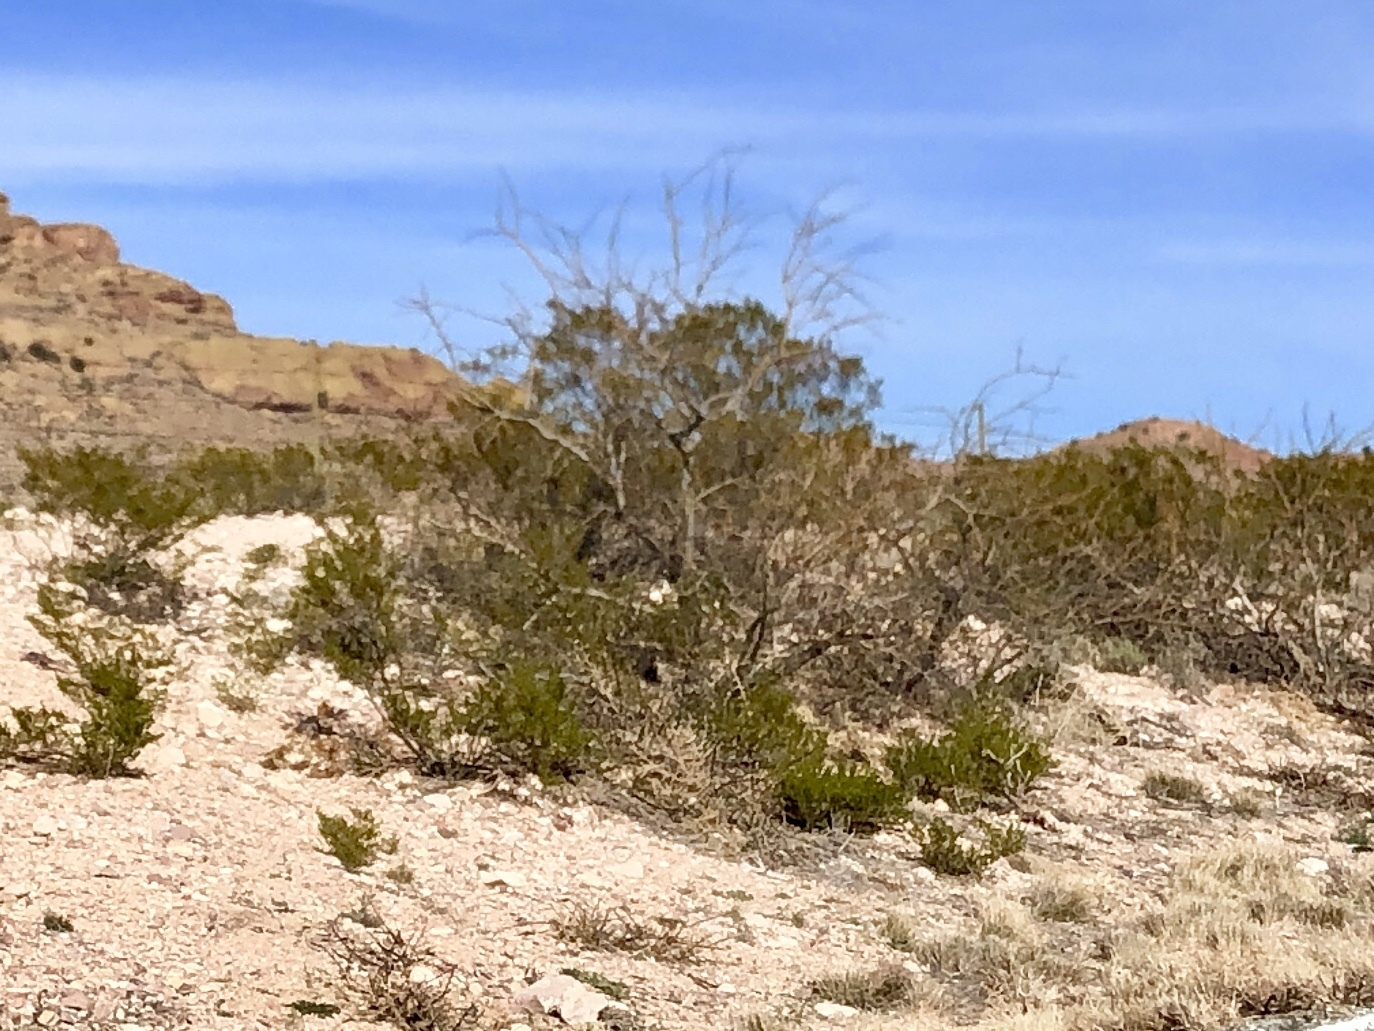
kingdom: Plantae
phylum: Tracheophyta
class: Magnoliopsida
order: Zygophyllales
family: Zygophyllaceae
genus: Larrea
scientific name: Larrea tridentata
